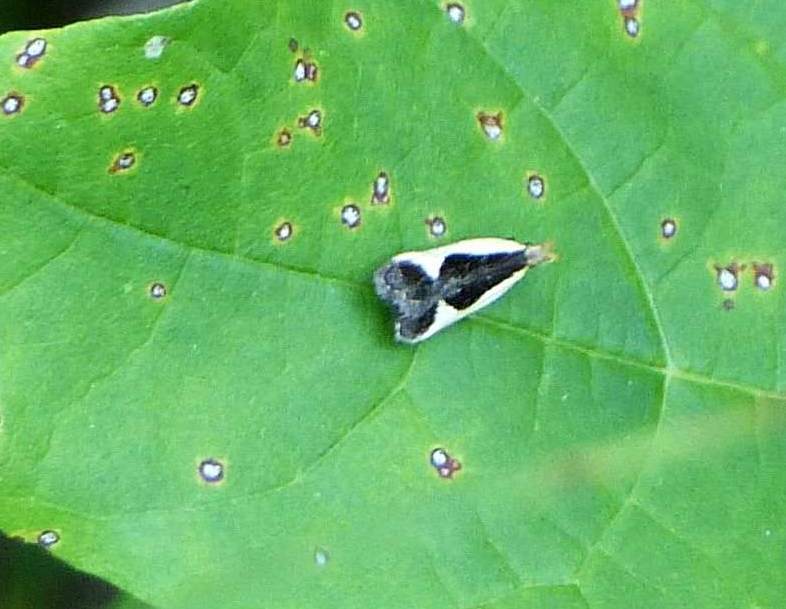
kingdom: Animalia
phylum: Arthropoda
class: Insecta
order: Lepidoptera
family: Gelechiidae
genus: Dichomeris
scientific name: Dichomeris flavocostella
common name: Cream-edged dichomeris moth
